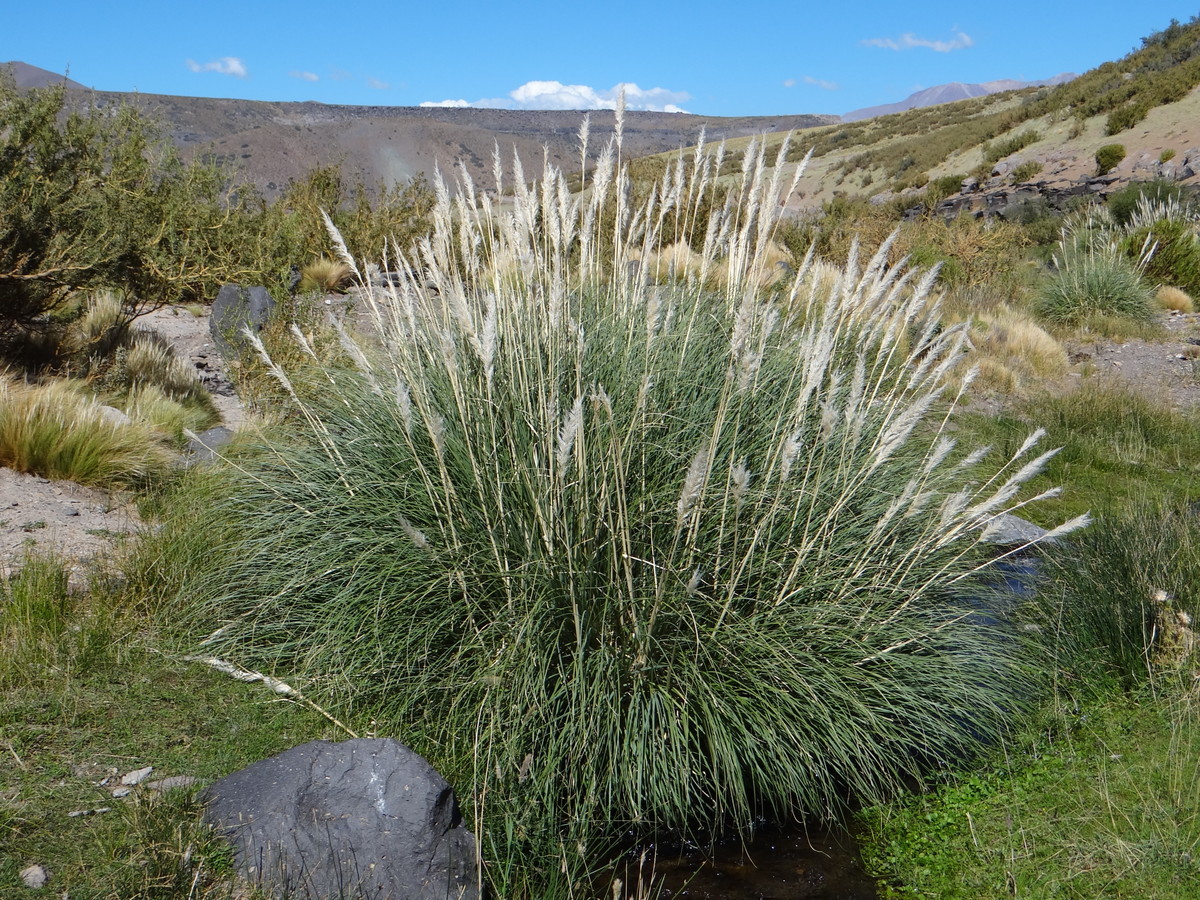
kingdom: Plantae
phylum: Tracheophyta
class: Liliopsida
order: Poales
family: Poaceae
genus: Cortaderia
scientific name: Cortaderia rudiuscula
